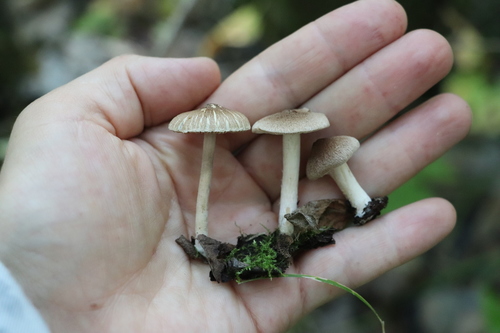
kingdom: Fungi
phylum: Basidiomycota
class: Agaricomycetes
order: Agaricales
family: Inocybaceae
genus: Inocybe
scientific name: Inocybe
